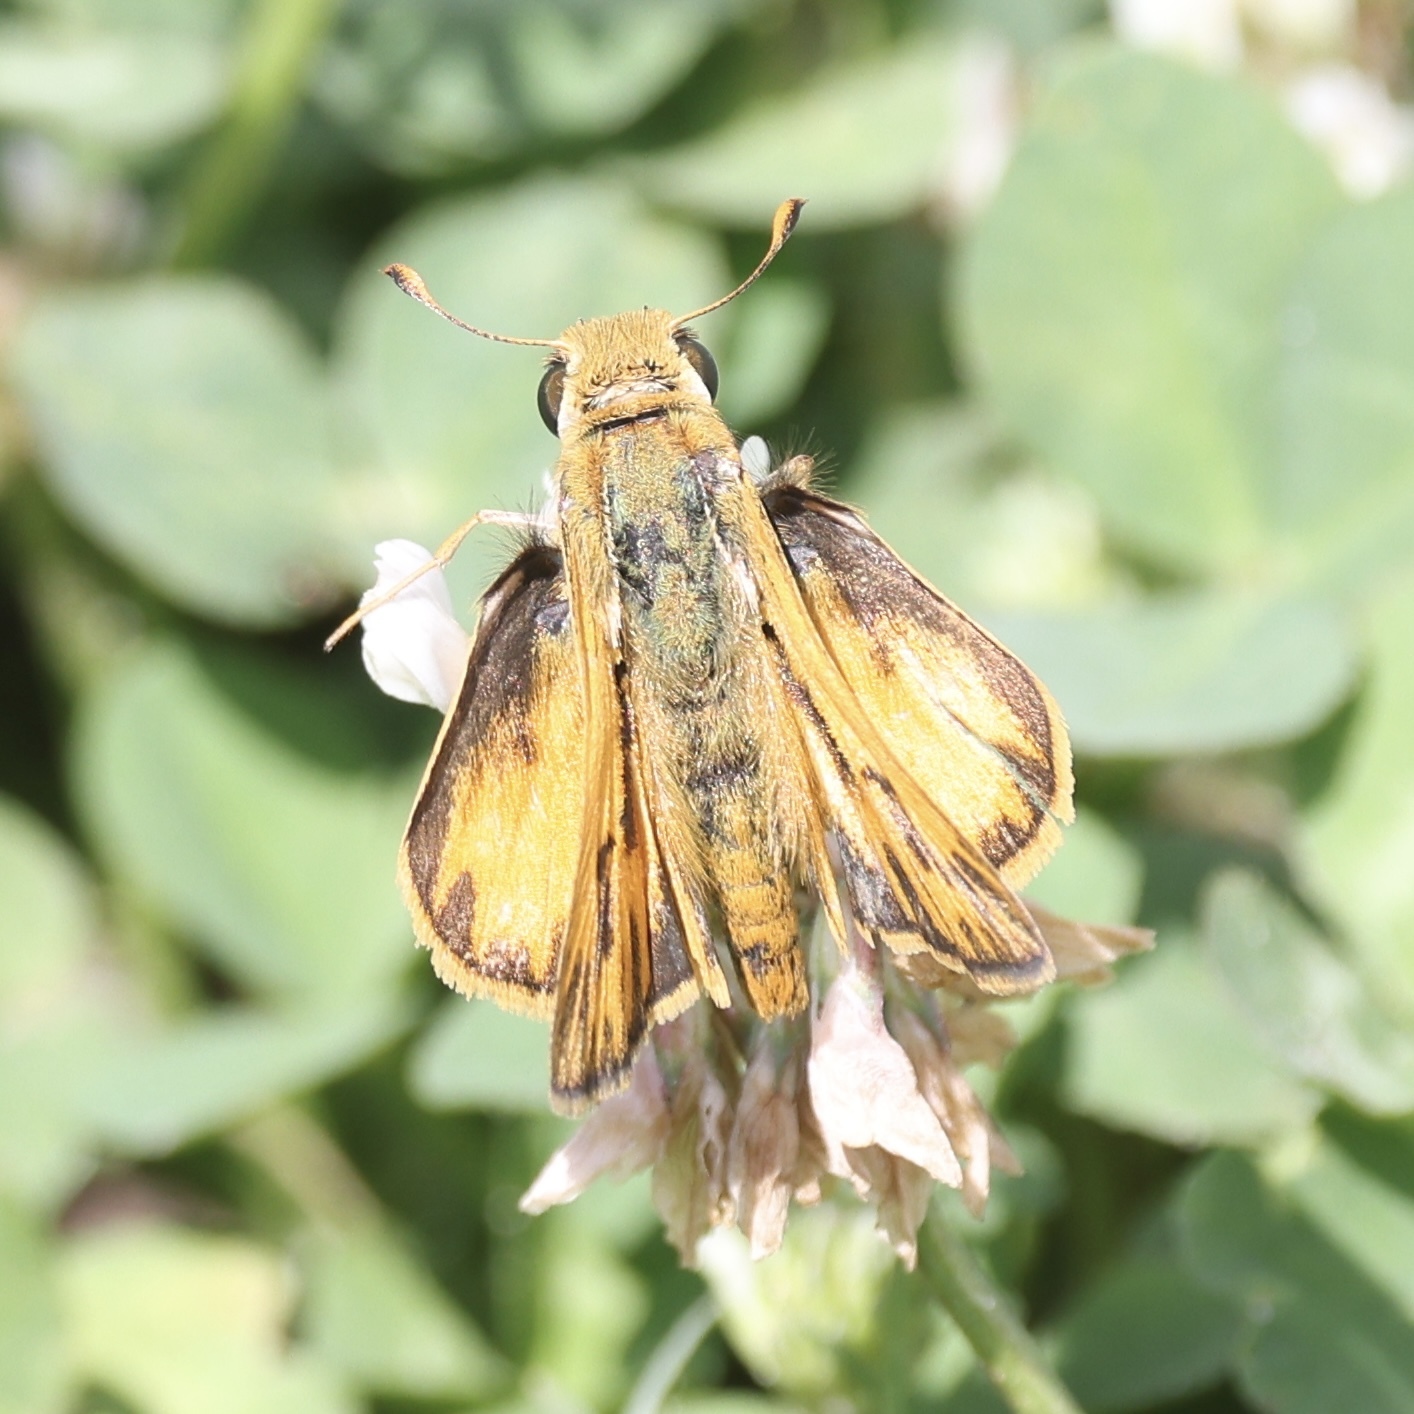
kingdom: Animalia
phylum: Arthropoda
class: Insecta
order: Lepidoptera
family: Hesperiidae
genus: Hylephila
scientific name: Hylephila phyleus
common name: Fiery skipper
